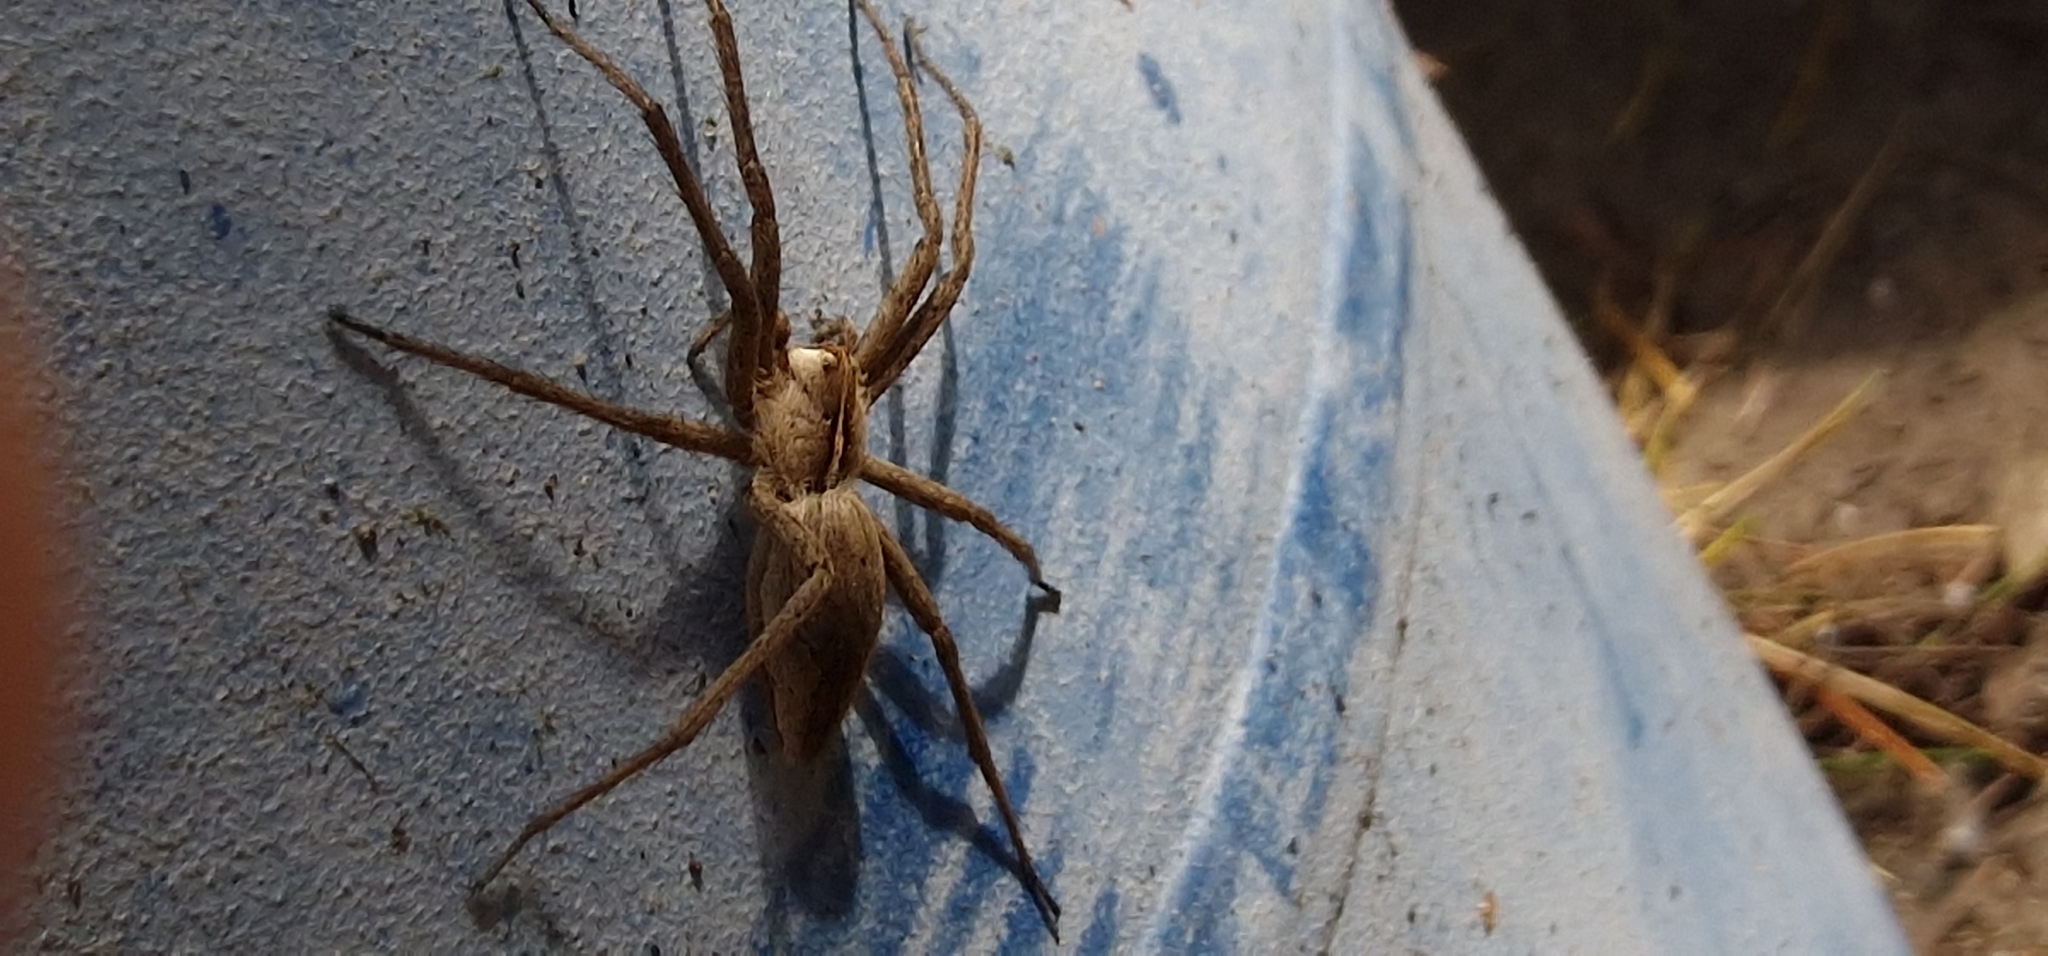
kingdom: Animalia
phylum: Arthropoda
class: Arachnida
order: Araneae
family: Pisauridae
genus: Pisaura
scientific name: Pisaura mirabilis
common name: Tent spider
